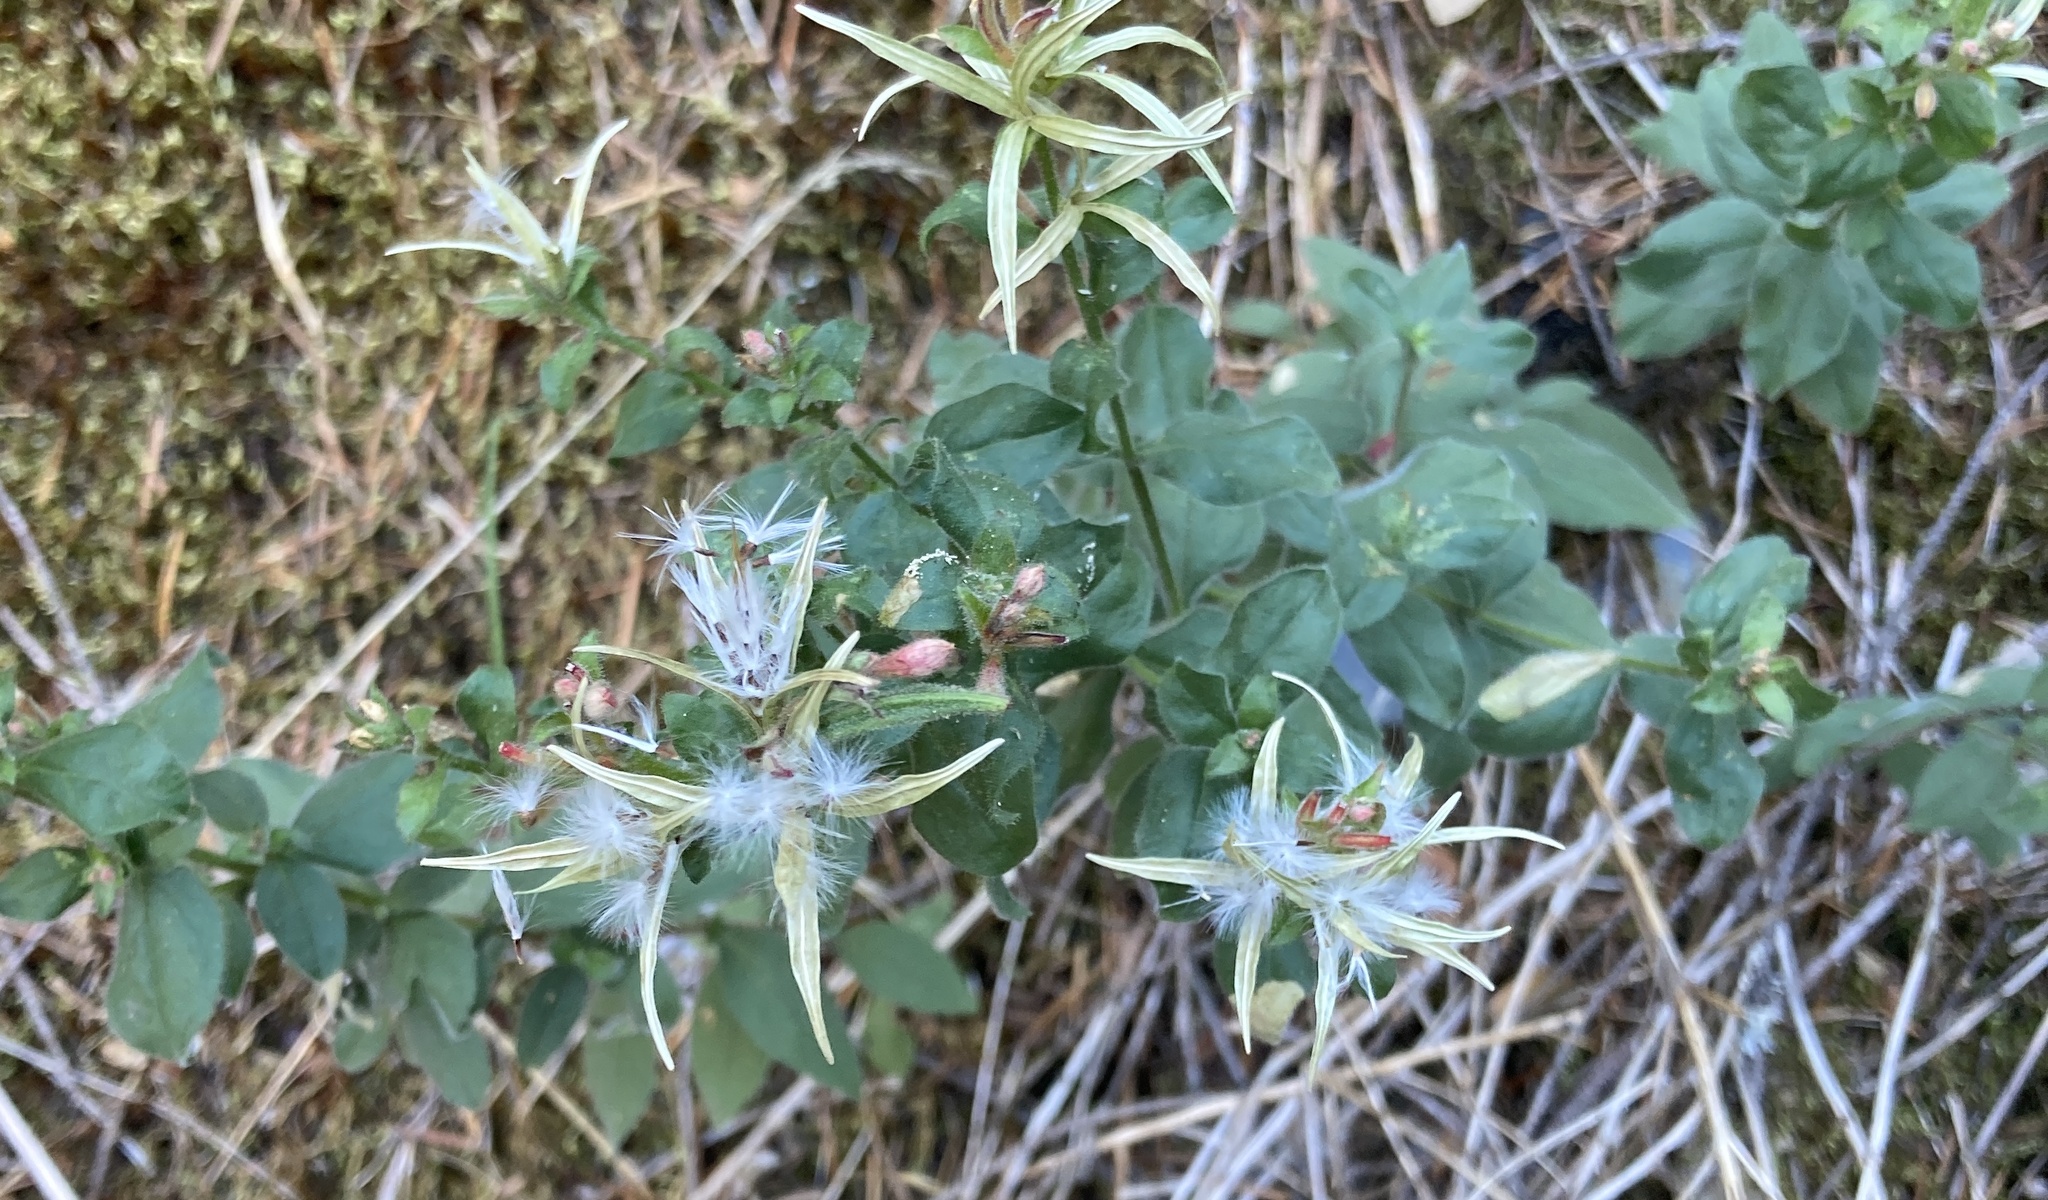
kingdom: Plantae
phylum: Tracheophyta
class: Magnoliopsida
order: Myrtales
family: Onagraceae
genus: Epilobium
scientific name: Epilobium canum
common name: California-fuchsia
